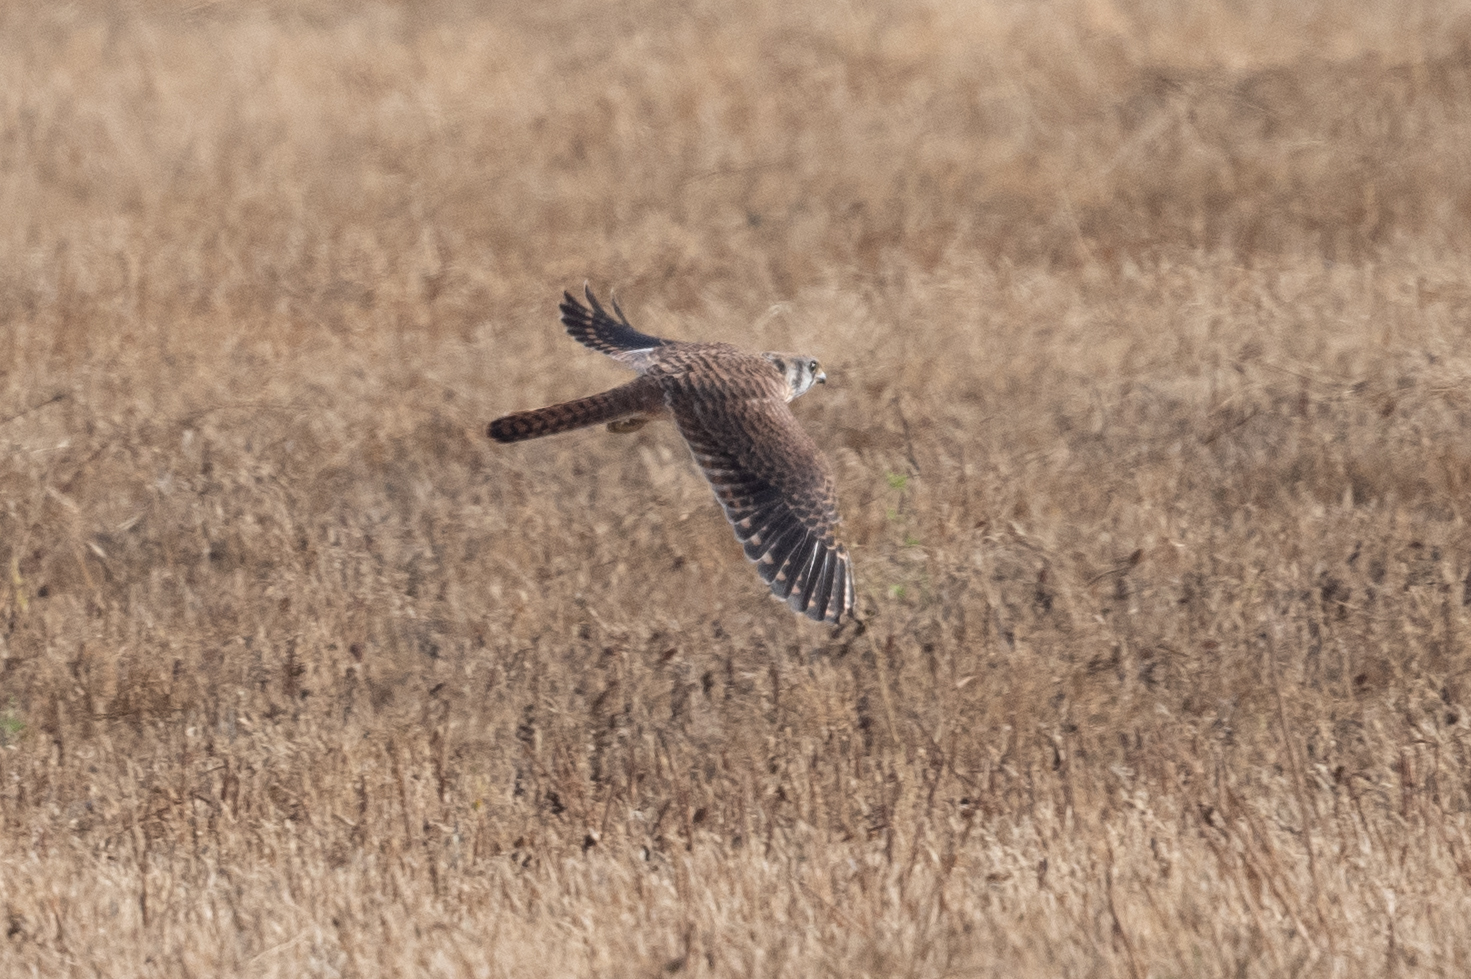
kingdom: Animalia
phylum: Chordata
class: Aves
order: Falconiformes
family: Falconidae
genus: Falco
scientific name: Falco sparverius
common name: American kestrel
